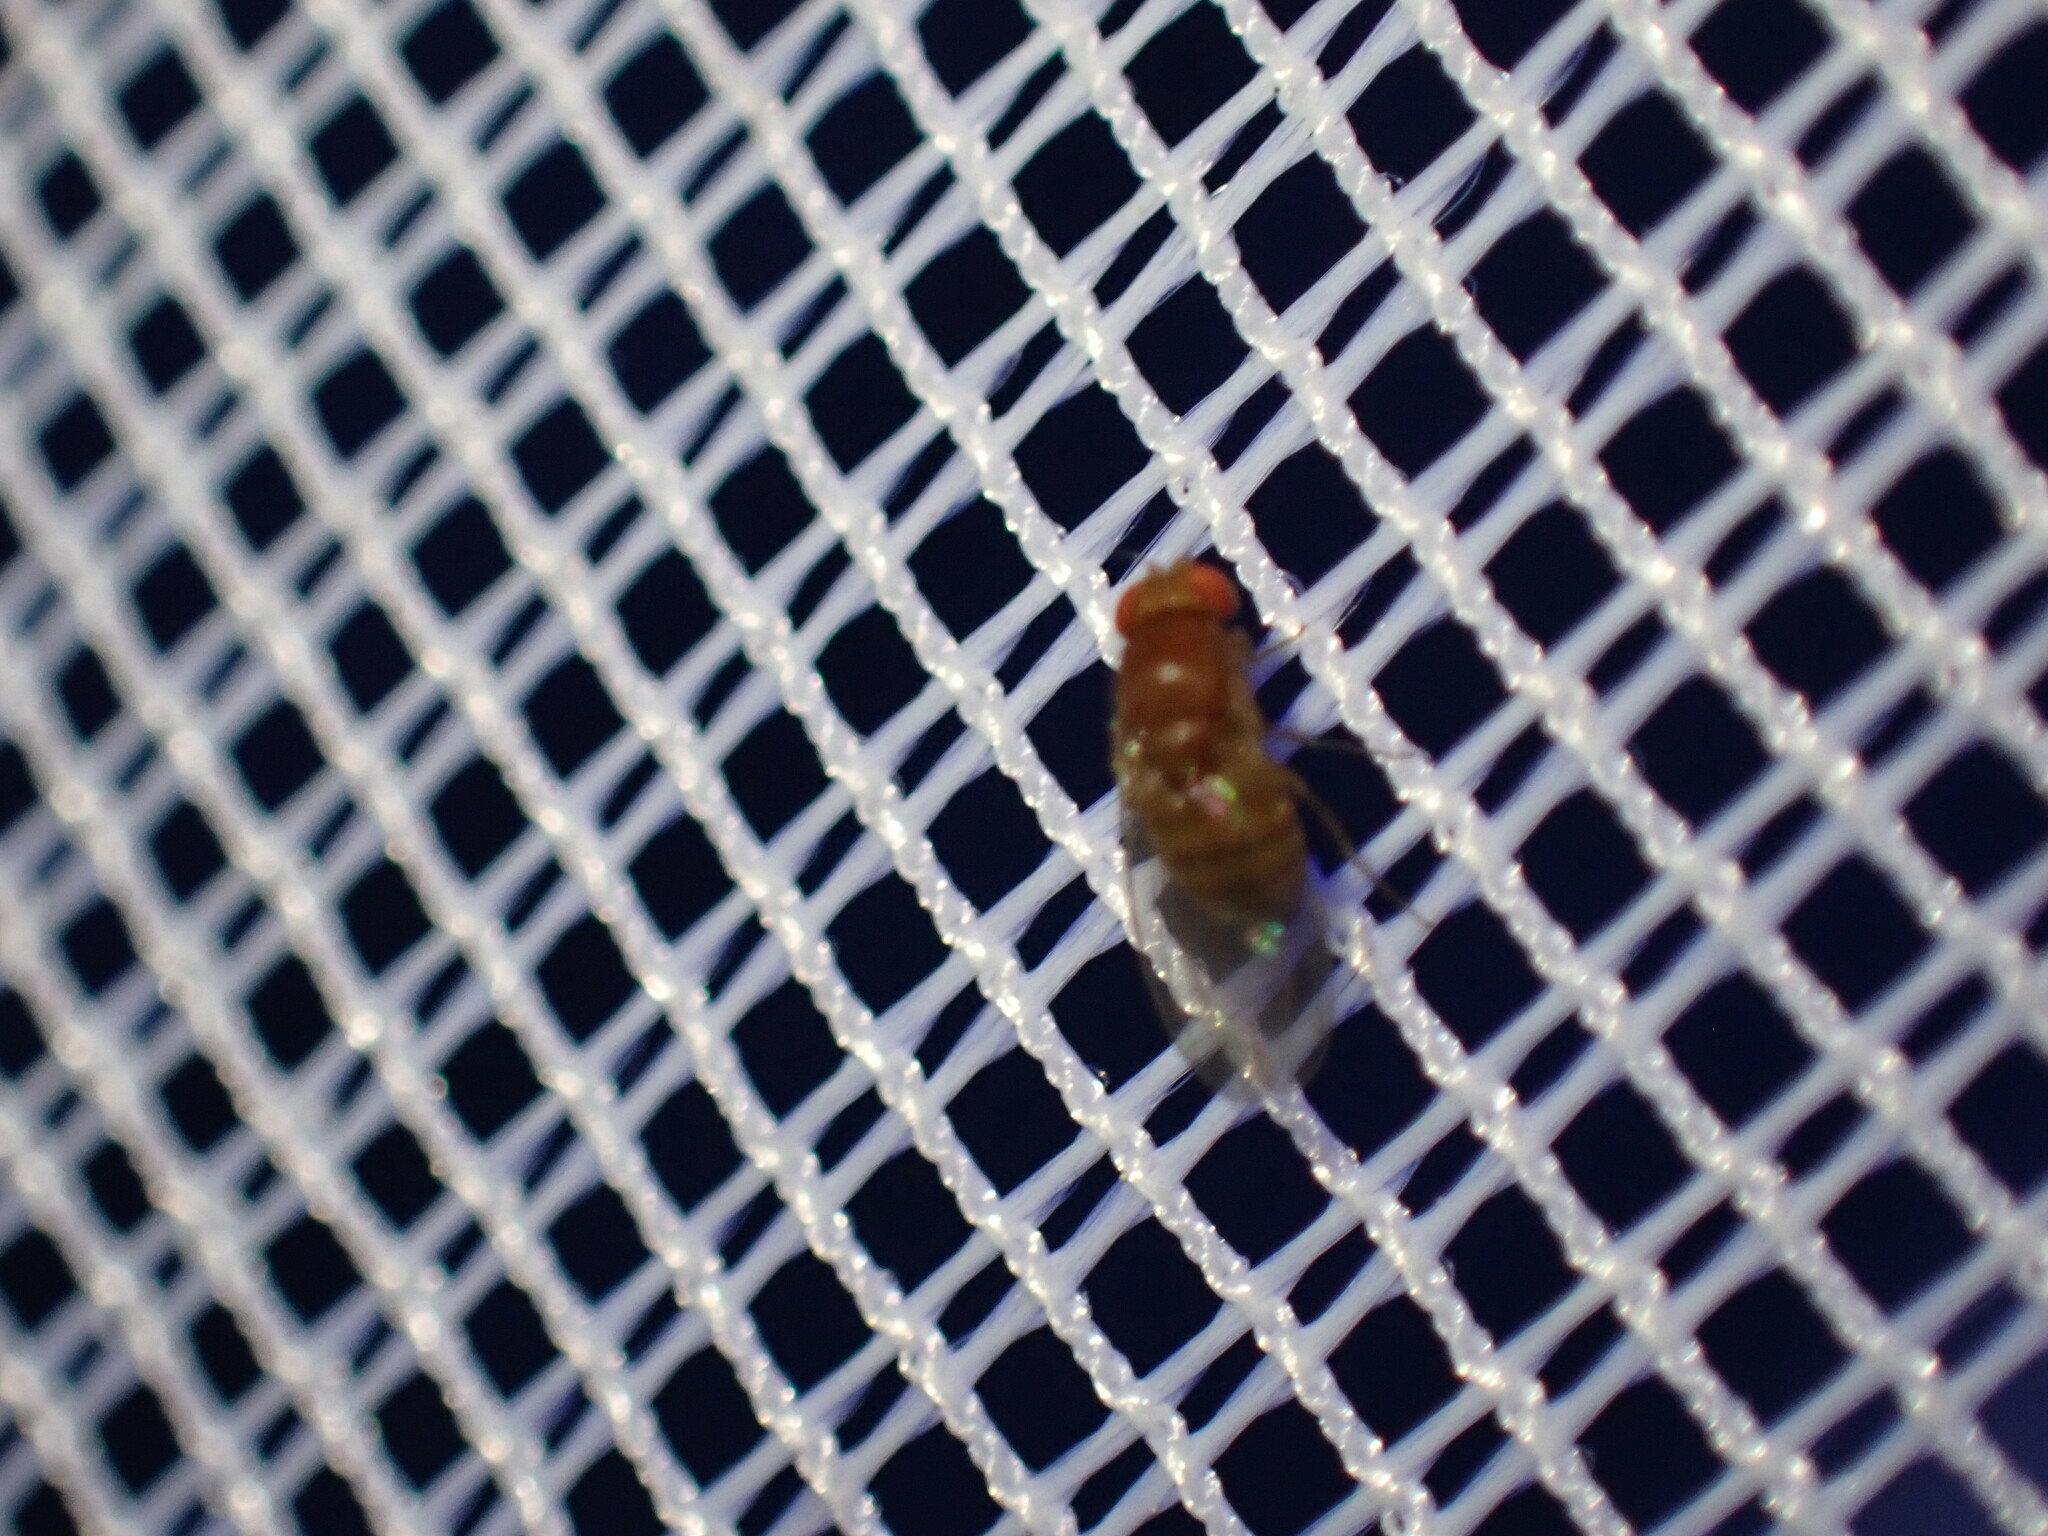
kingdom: Animalia
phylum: Arthropoda
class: Insecta
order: Diptera
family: Drosophilidae
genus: Drosophila
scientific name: Drosophila
